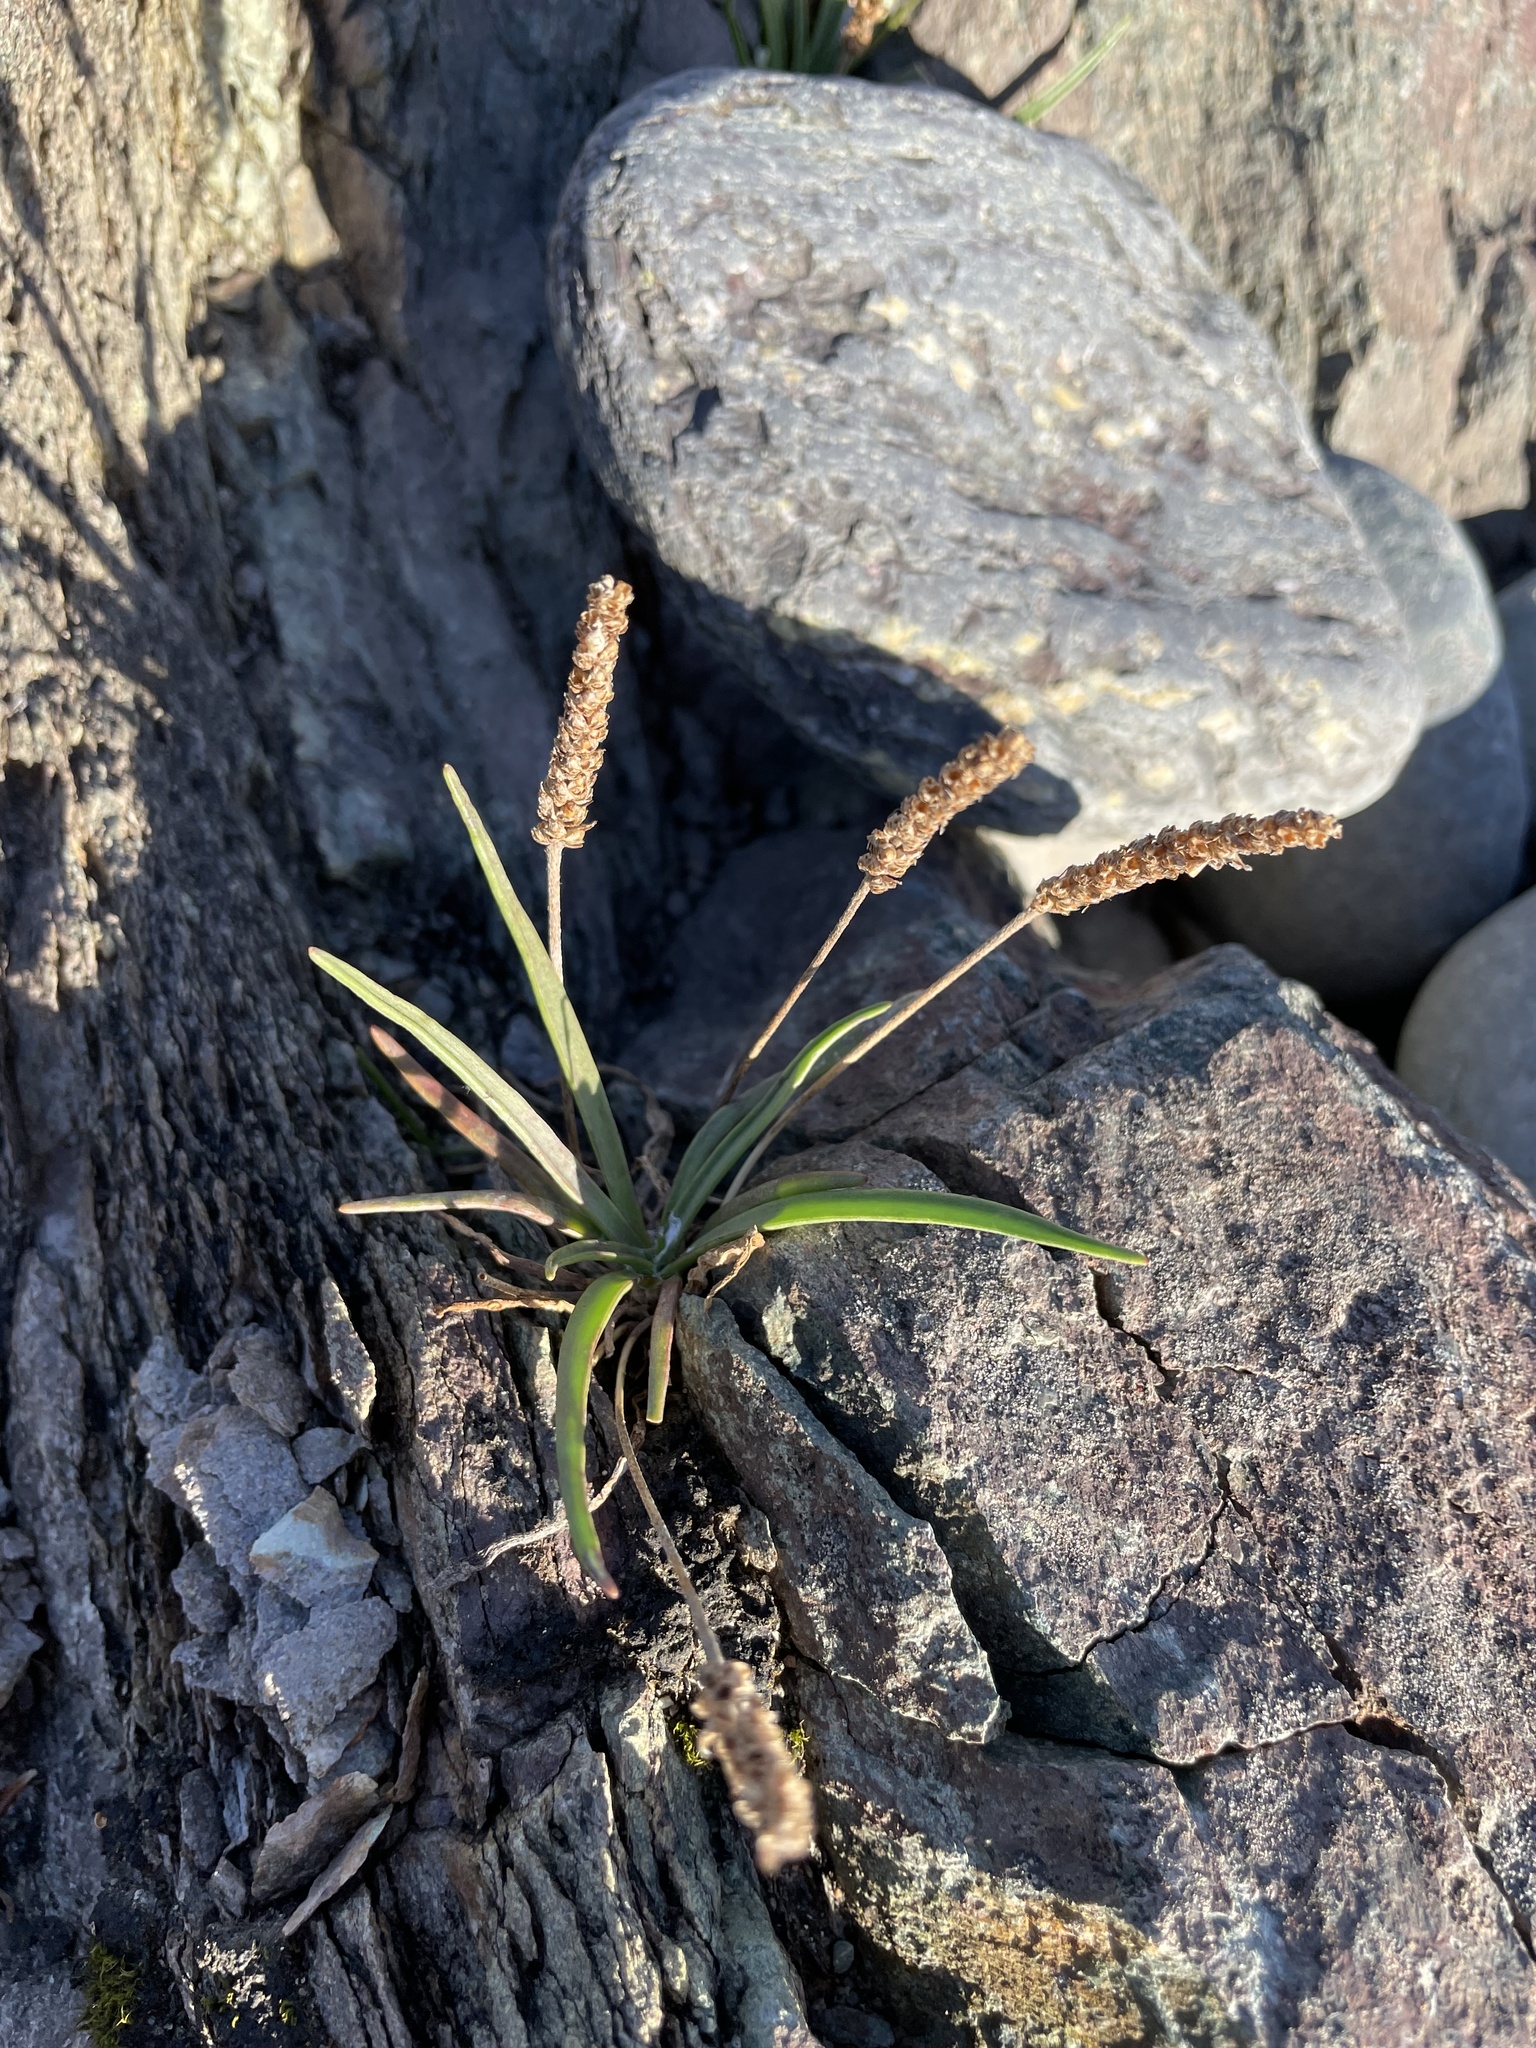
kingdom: Plantae
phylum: Tracheophyta
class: Magnoliopsida
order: Lamiales
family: Plantaginaceae
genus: Plantago
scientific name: Plantago maritima
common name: Sea plantain
